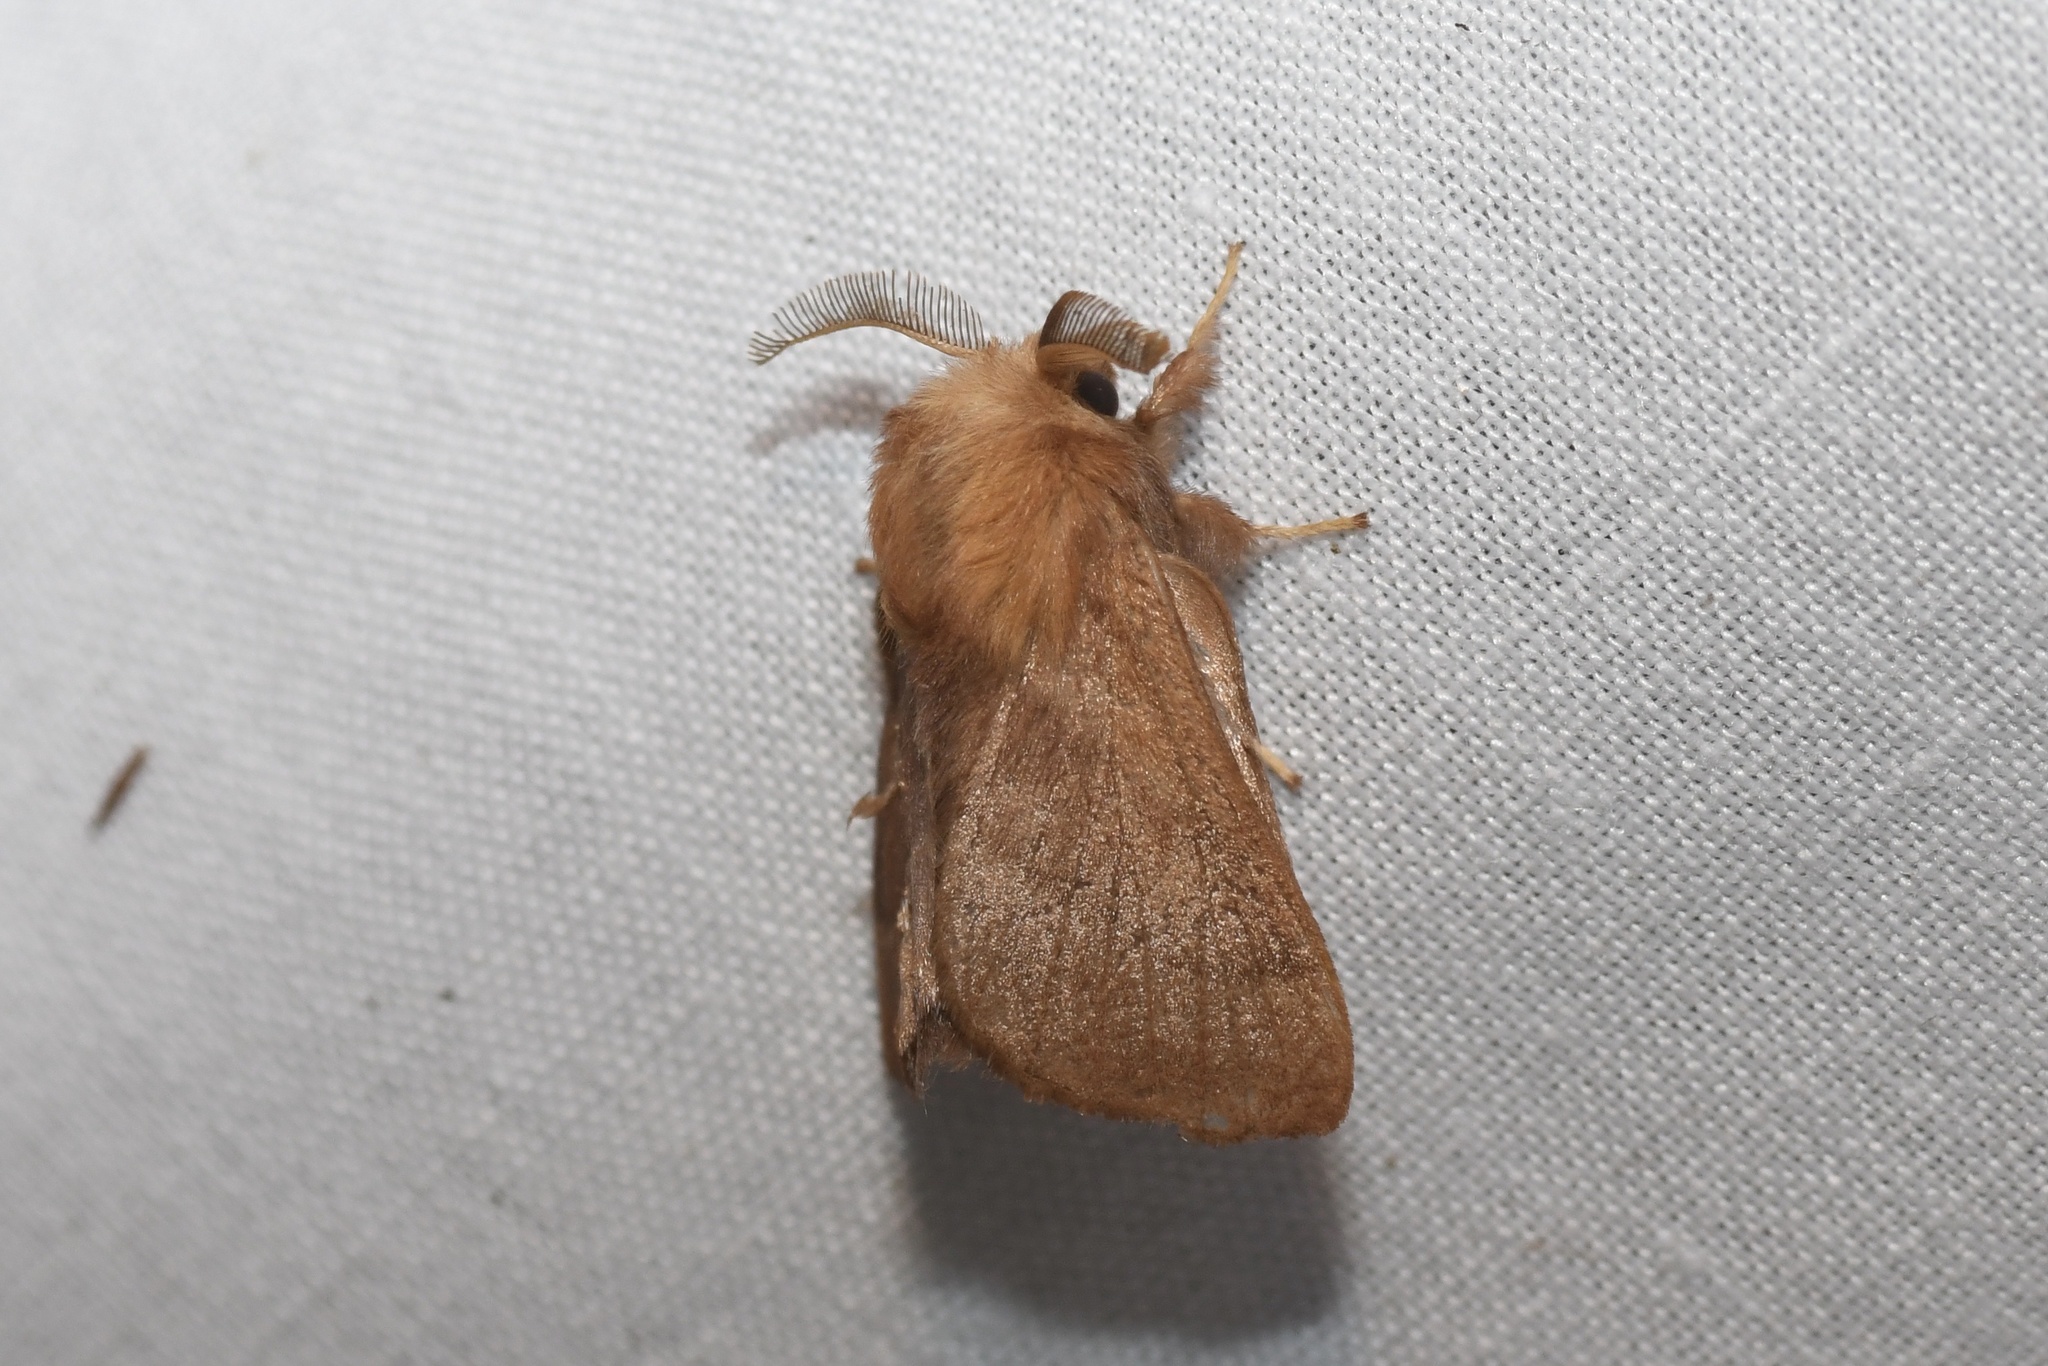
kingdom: Animalia
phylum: Arthropoda
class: Insecta
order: Lepidoptera
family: Lasiocampidae
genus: Malacosoma
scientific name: Malacosoma disstria
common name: Forest tent caterpillar
